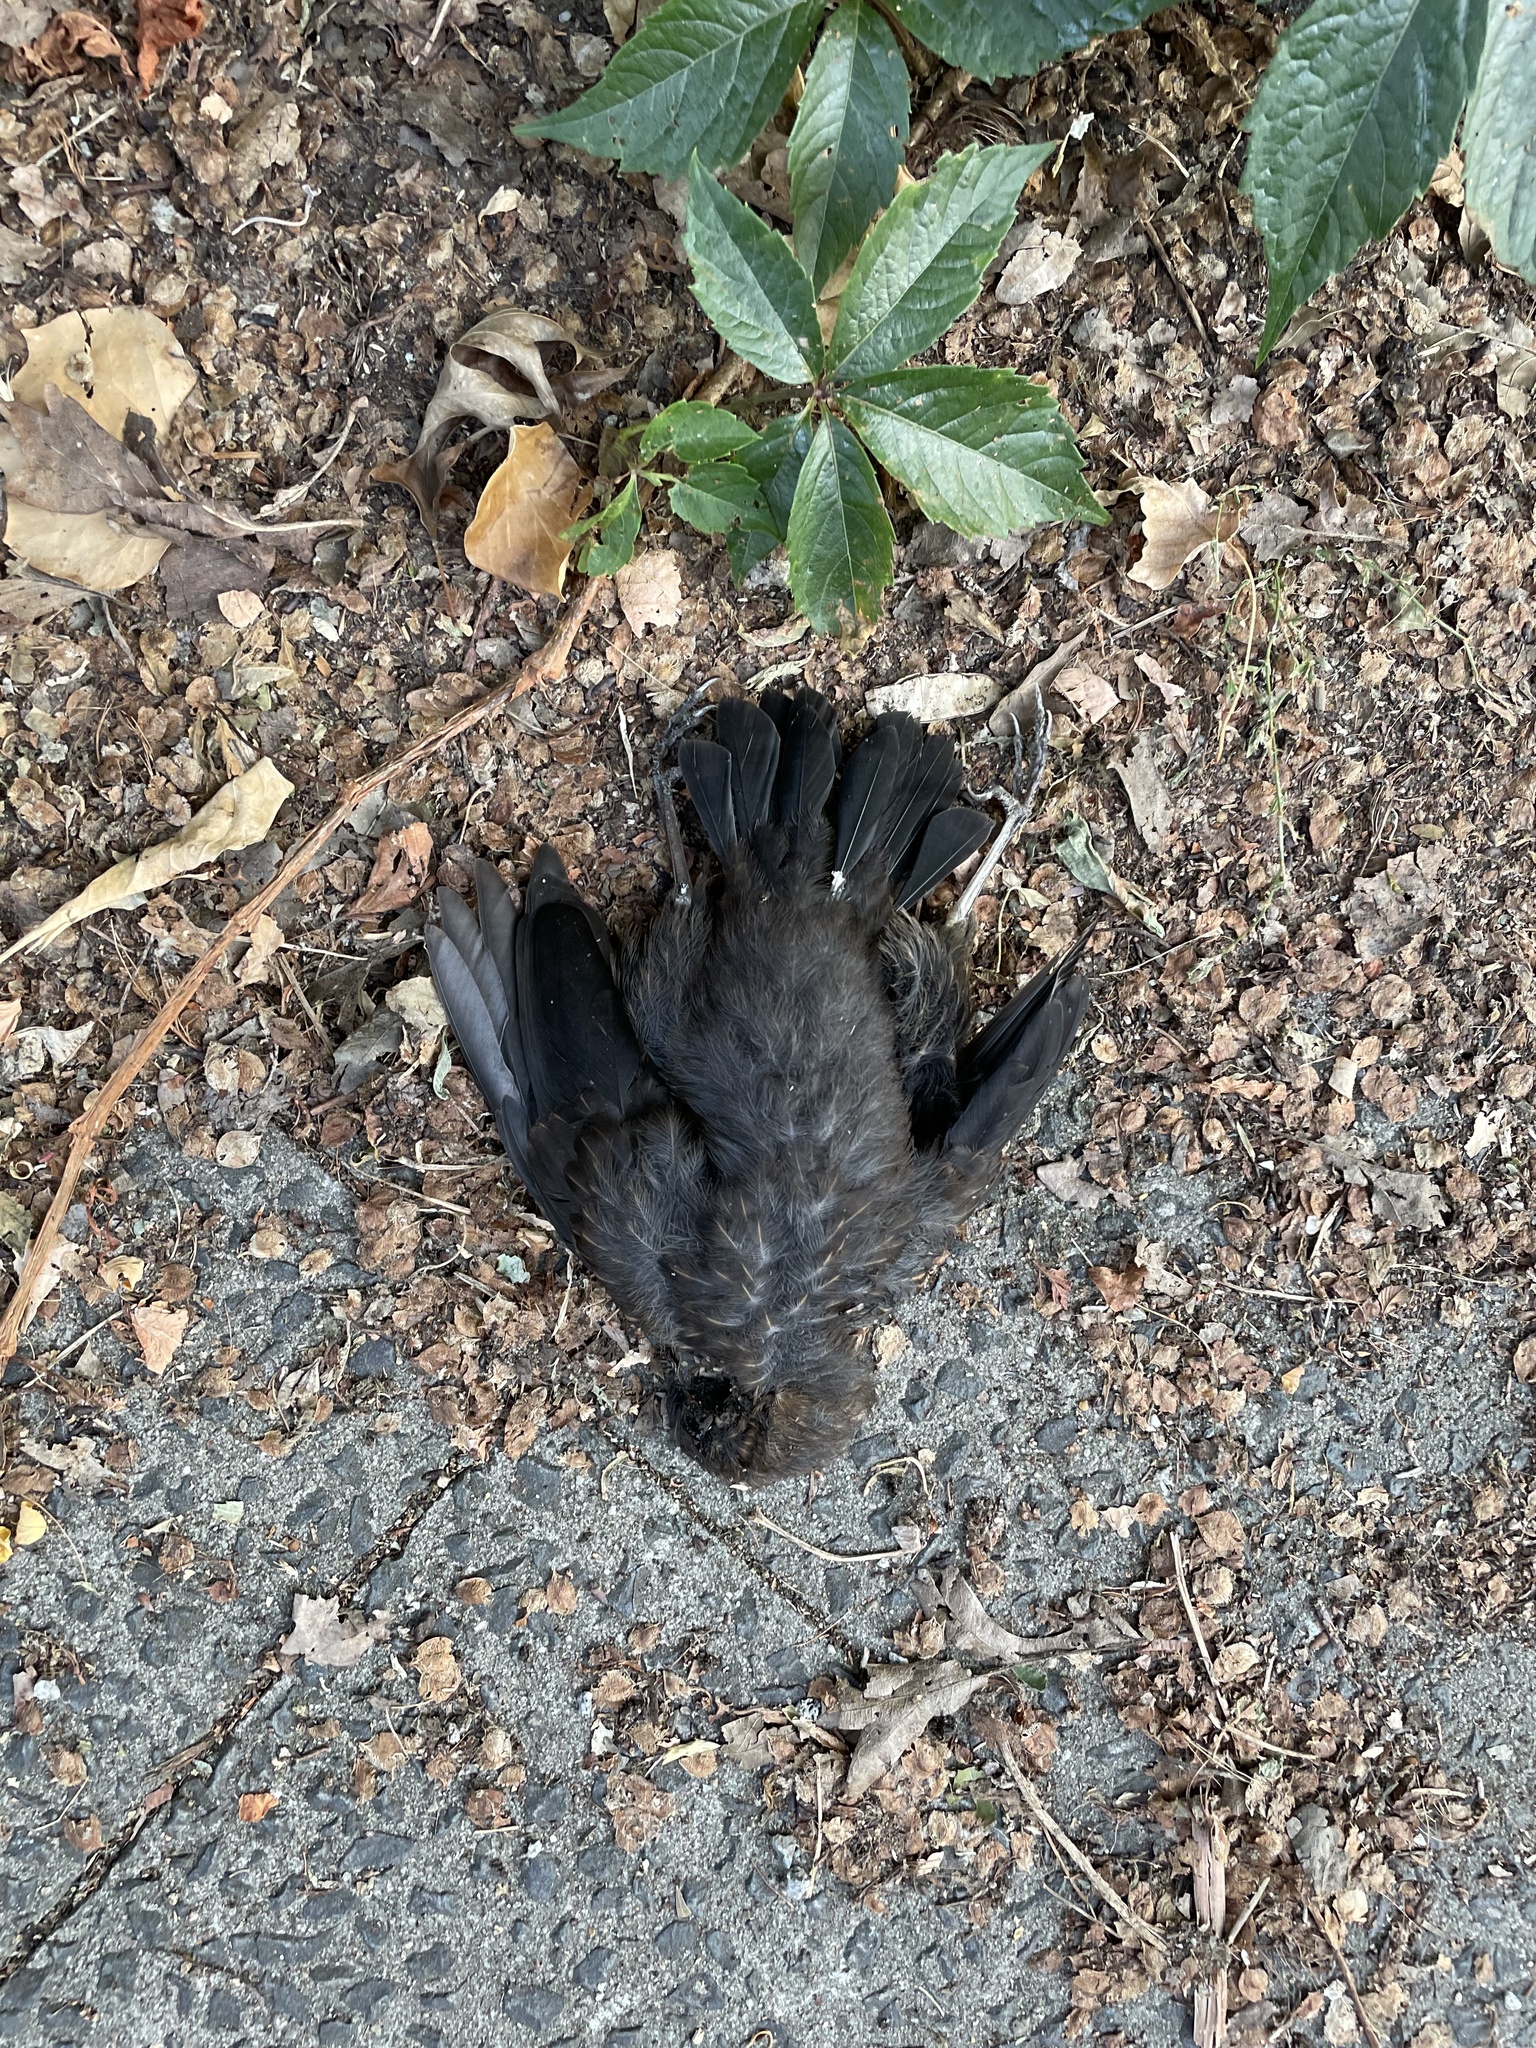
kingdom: Animalia
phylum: Chordata
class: Aves
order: Passeriformes
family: Turdidae
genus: Turdus
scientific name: Turdus merula
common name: Common blackbird
